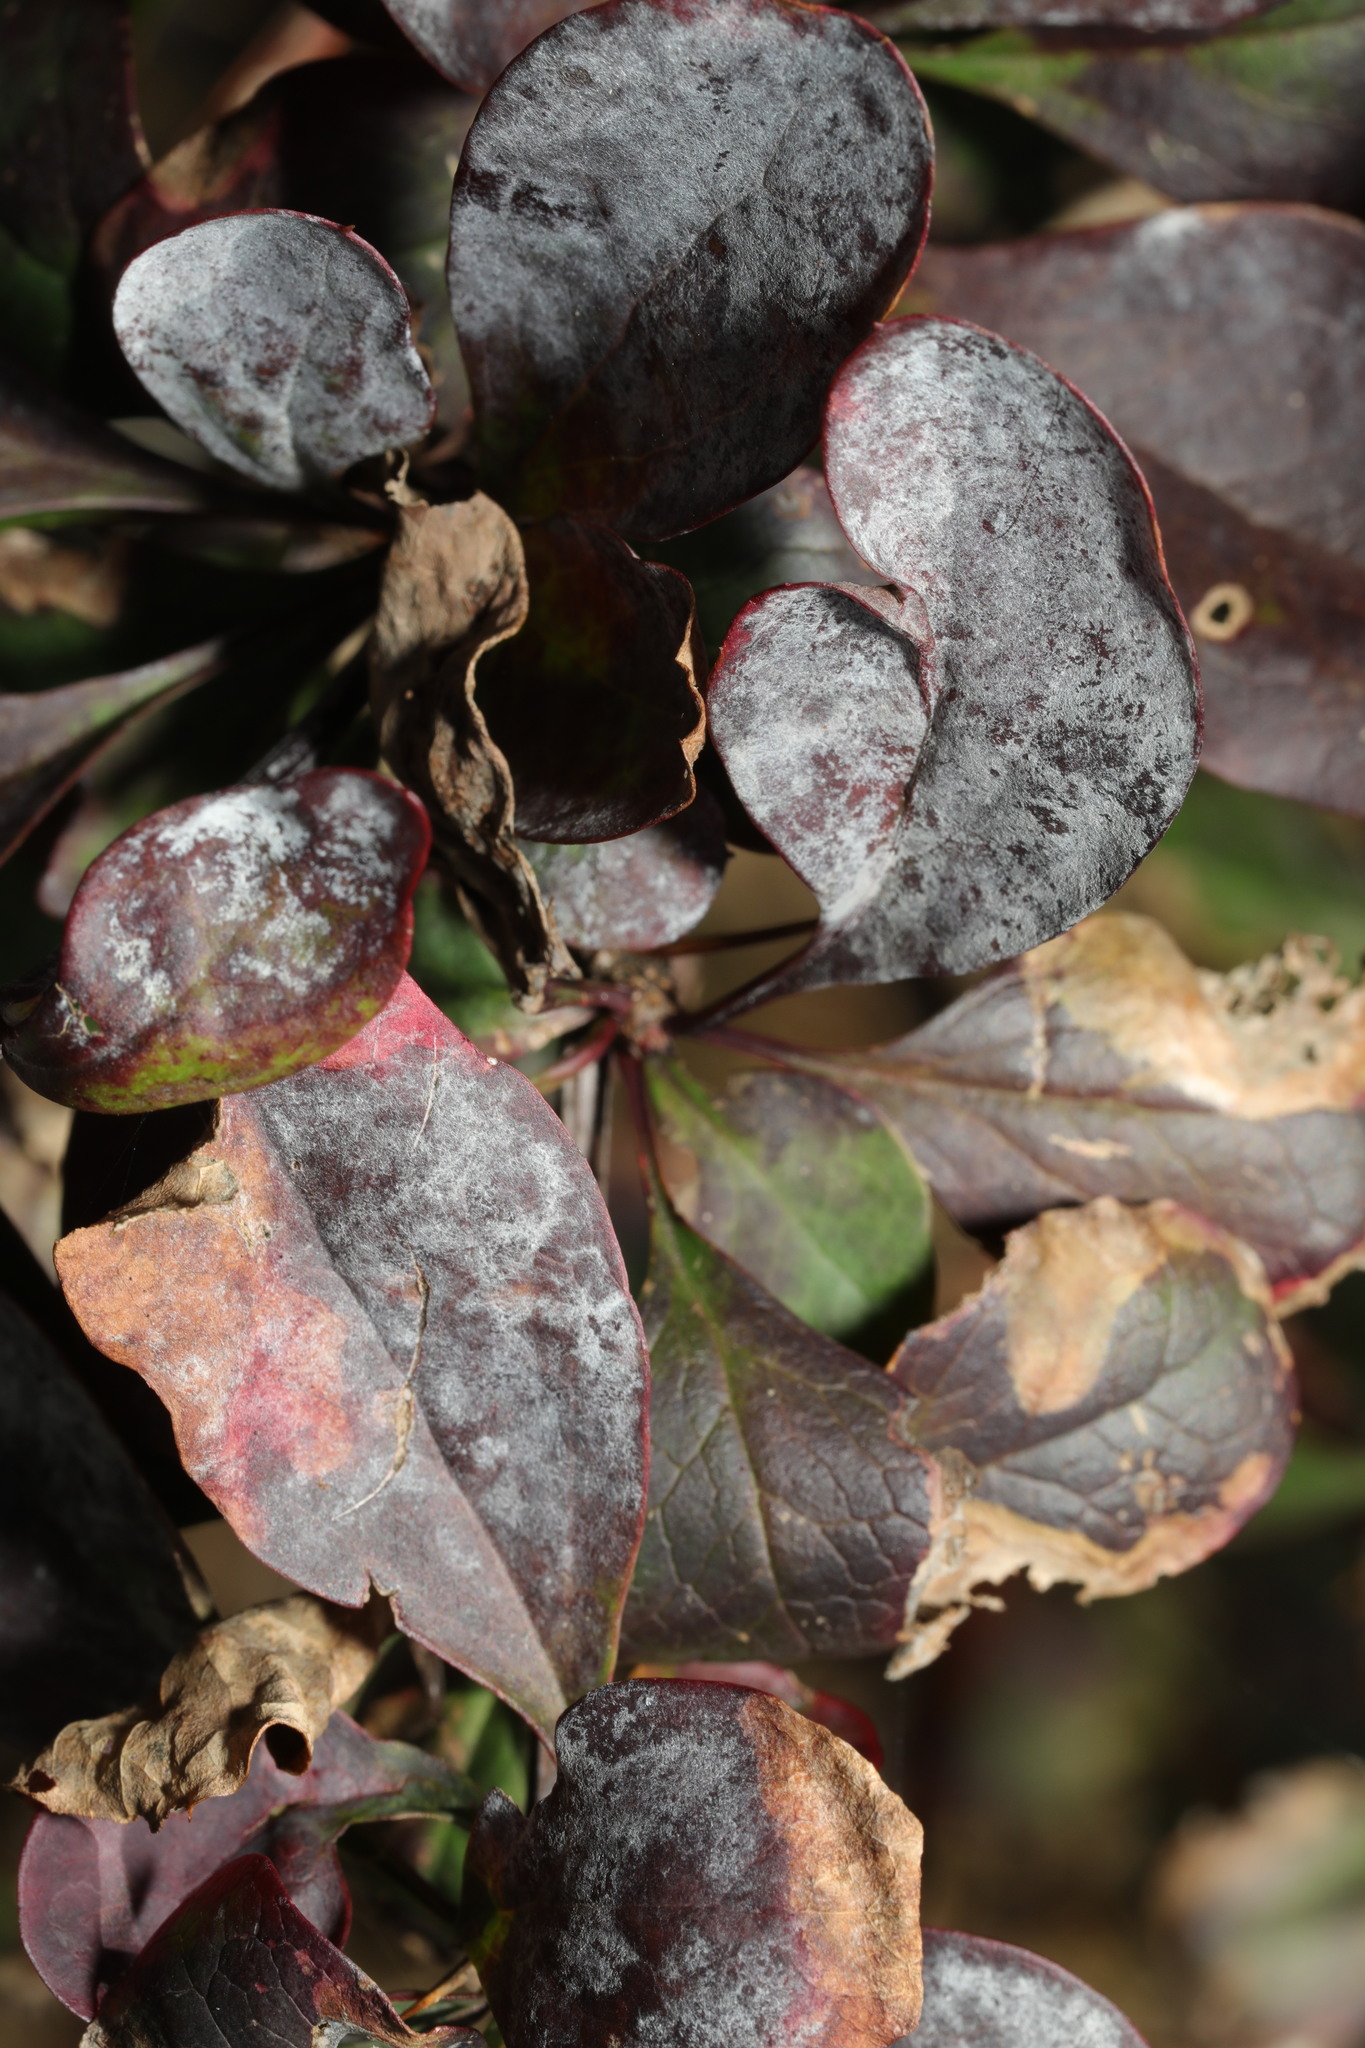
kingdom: Fungi
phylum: Ascomycota
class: Leotiomycetes
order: Helotiales
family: Erysiphaceae
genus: Erysiphe
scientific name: Erysiphe berberidis
